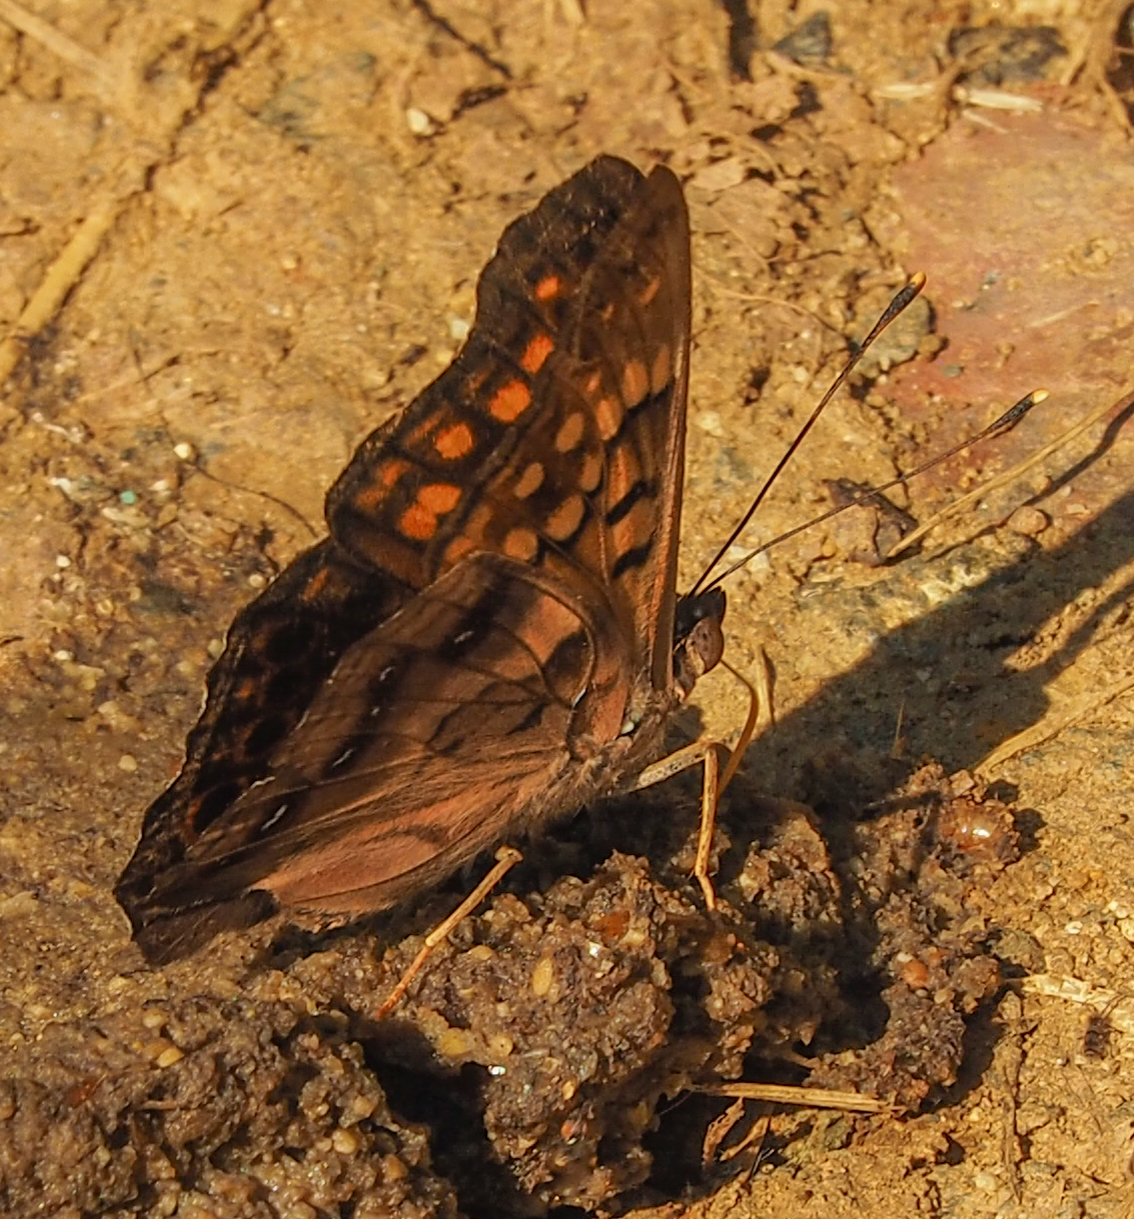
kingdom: Animalia
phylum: Arthropoda
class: Insecta
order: Lepidoptera
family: Nymphalidae
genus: Asterocampa
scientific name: Asterocampa clyton
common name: Tawny emperor
